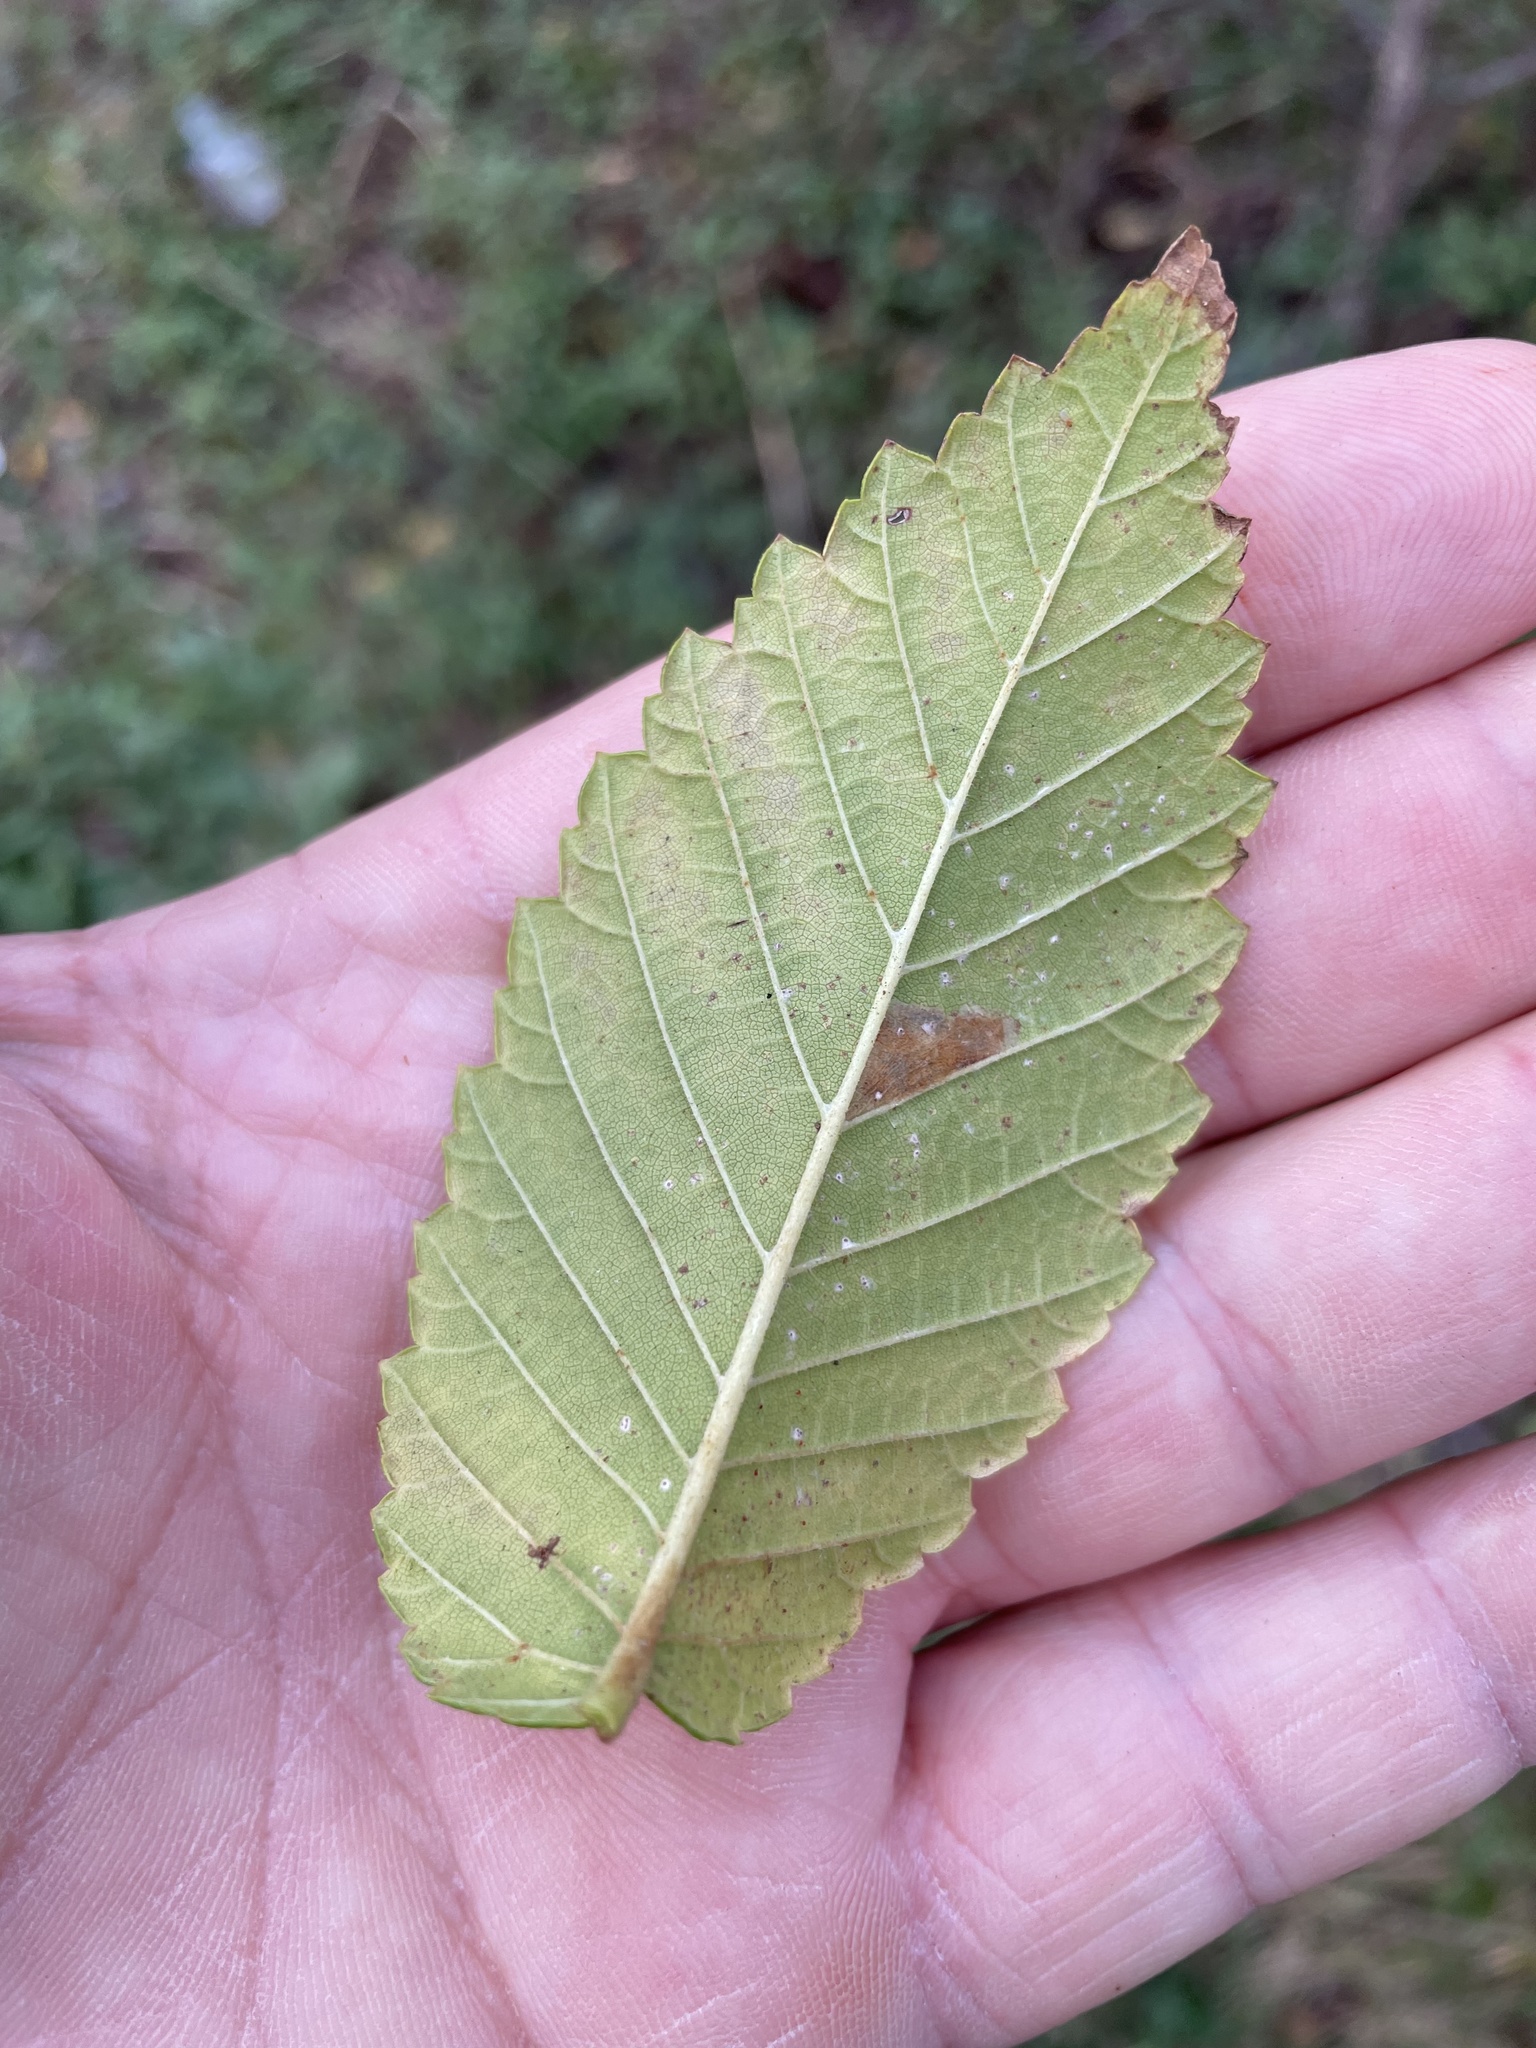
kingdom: Plantae
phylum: Tracheophyta
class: Magnoliopsida
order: Rosales
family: Ulmaceae
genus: Ulmus
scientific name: Ulmus americana
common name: American elm
